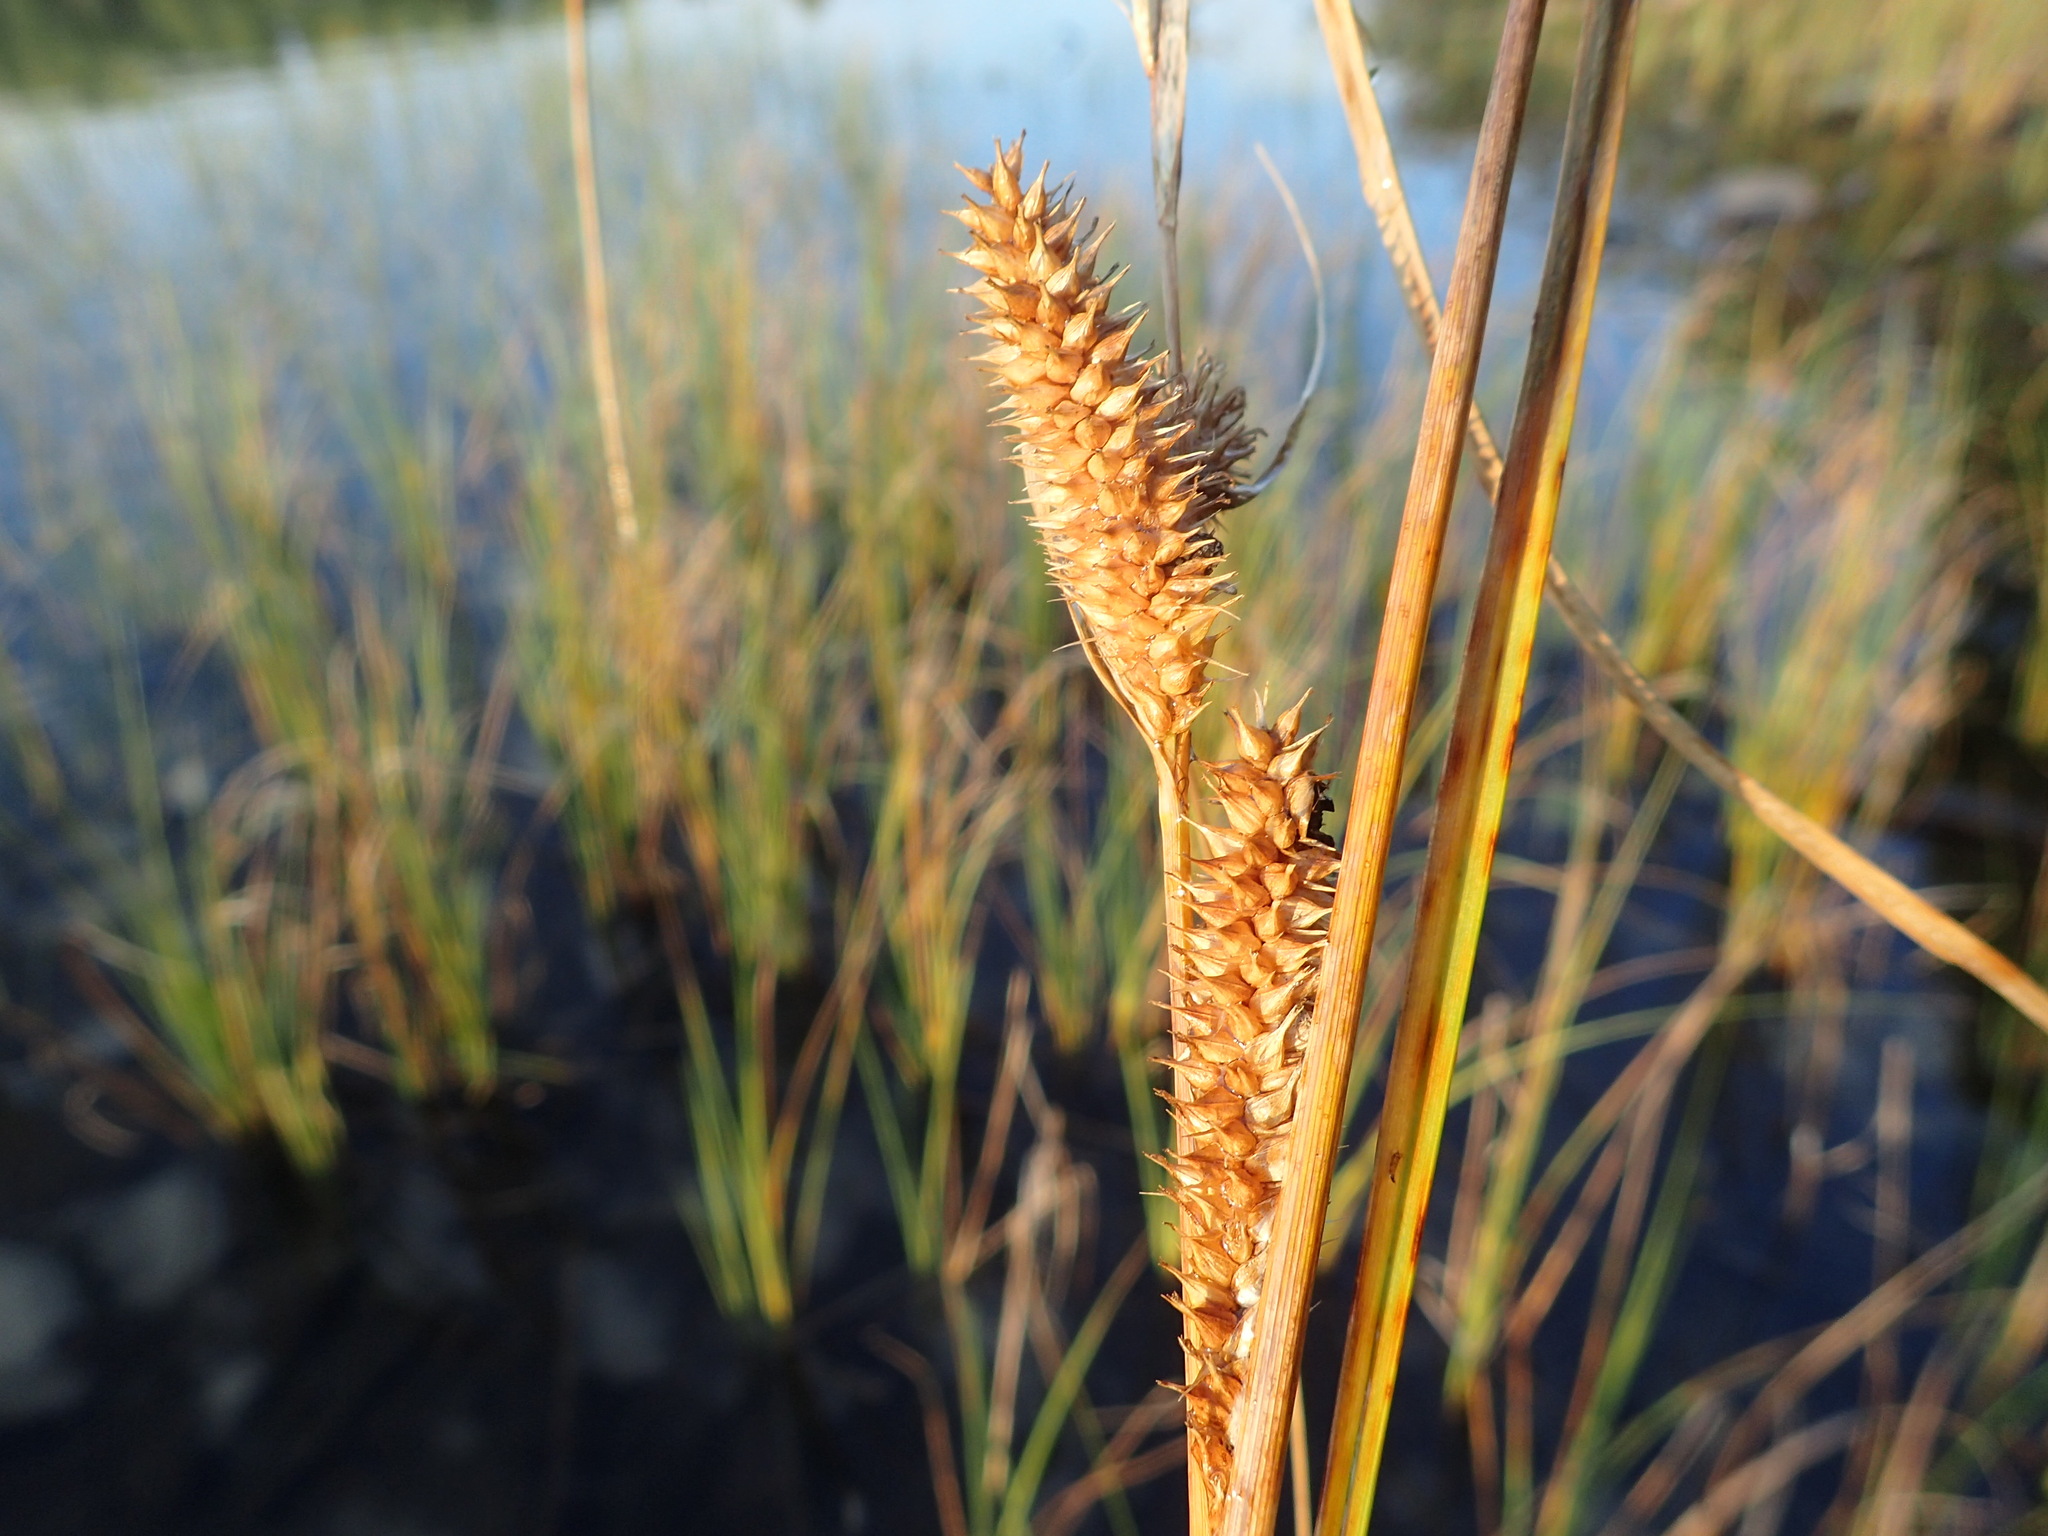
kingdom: Plantae
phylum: Tracheophyta
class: Liliopsida
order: Poales
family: Cyperaceae
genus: Carex
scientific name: Carex utriculata
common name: Beaked sedge
